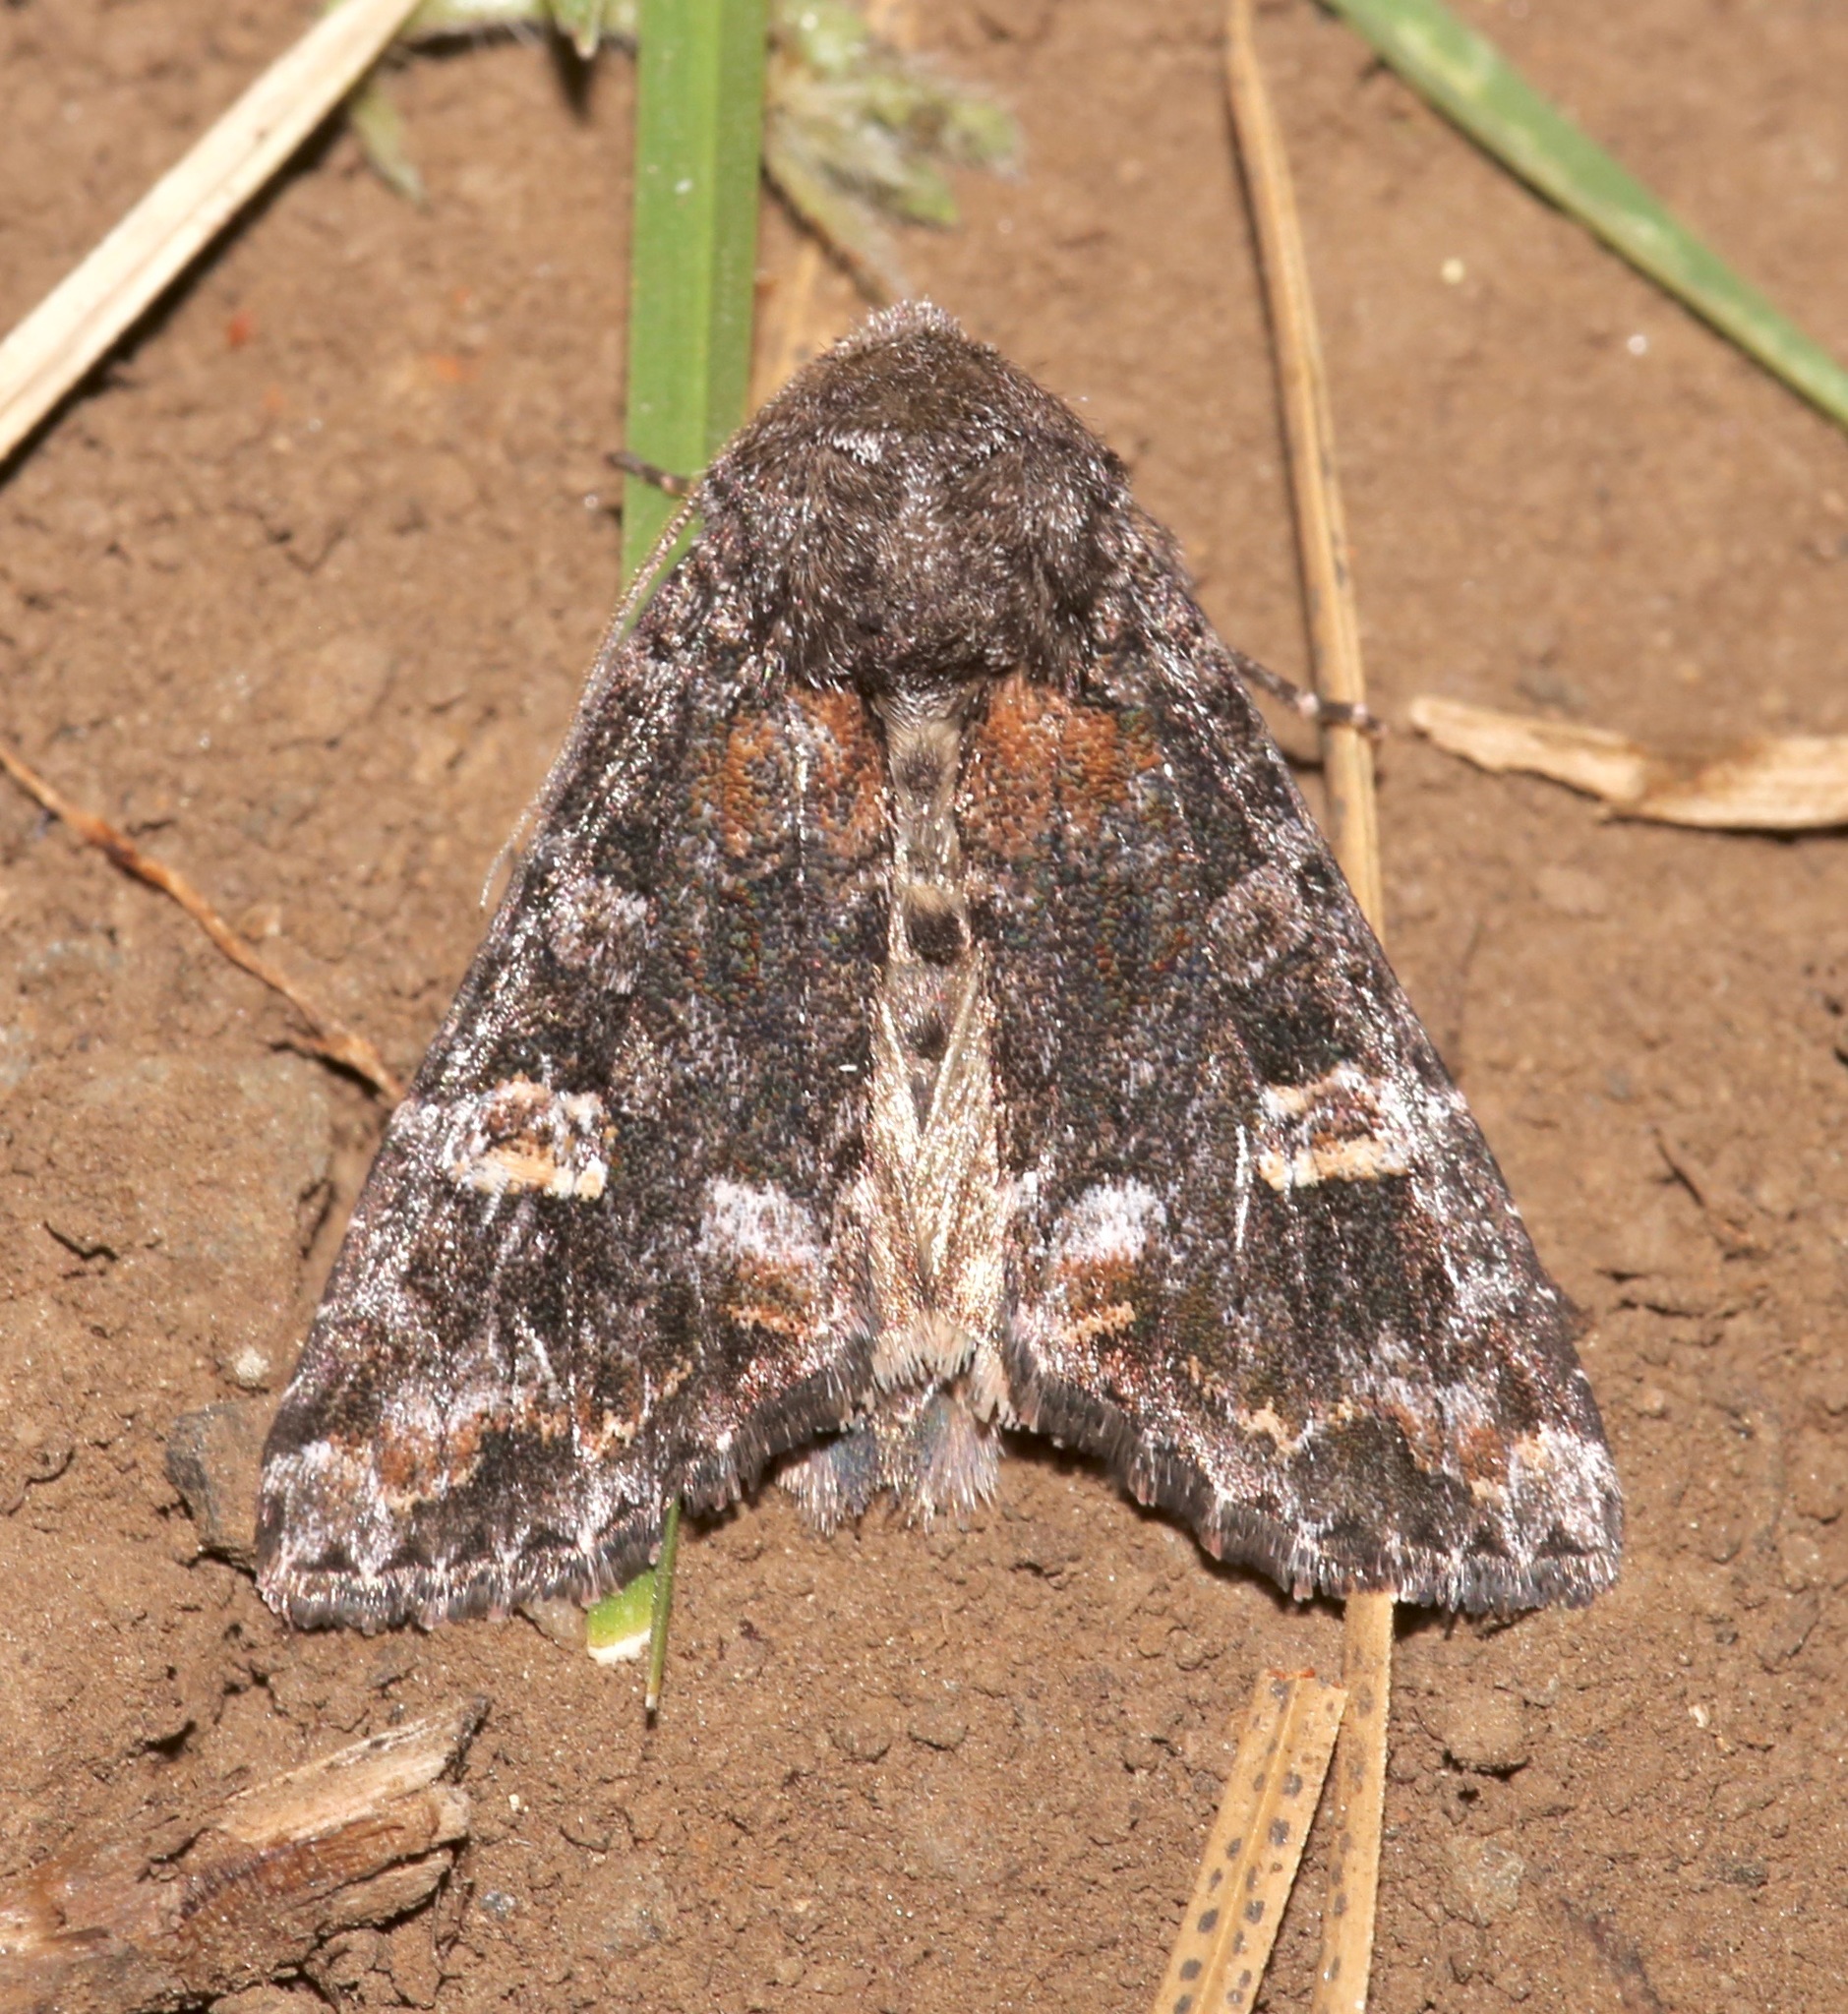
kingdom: Animalia
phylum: Arthropoda
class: Insecta
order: Lepidoptera
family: Noctuidae
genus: Spiramater
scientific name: Spiramater lutra
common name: Otter spiramater moth
